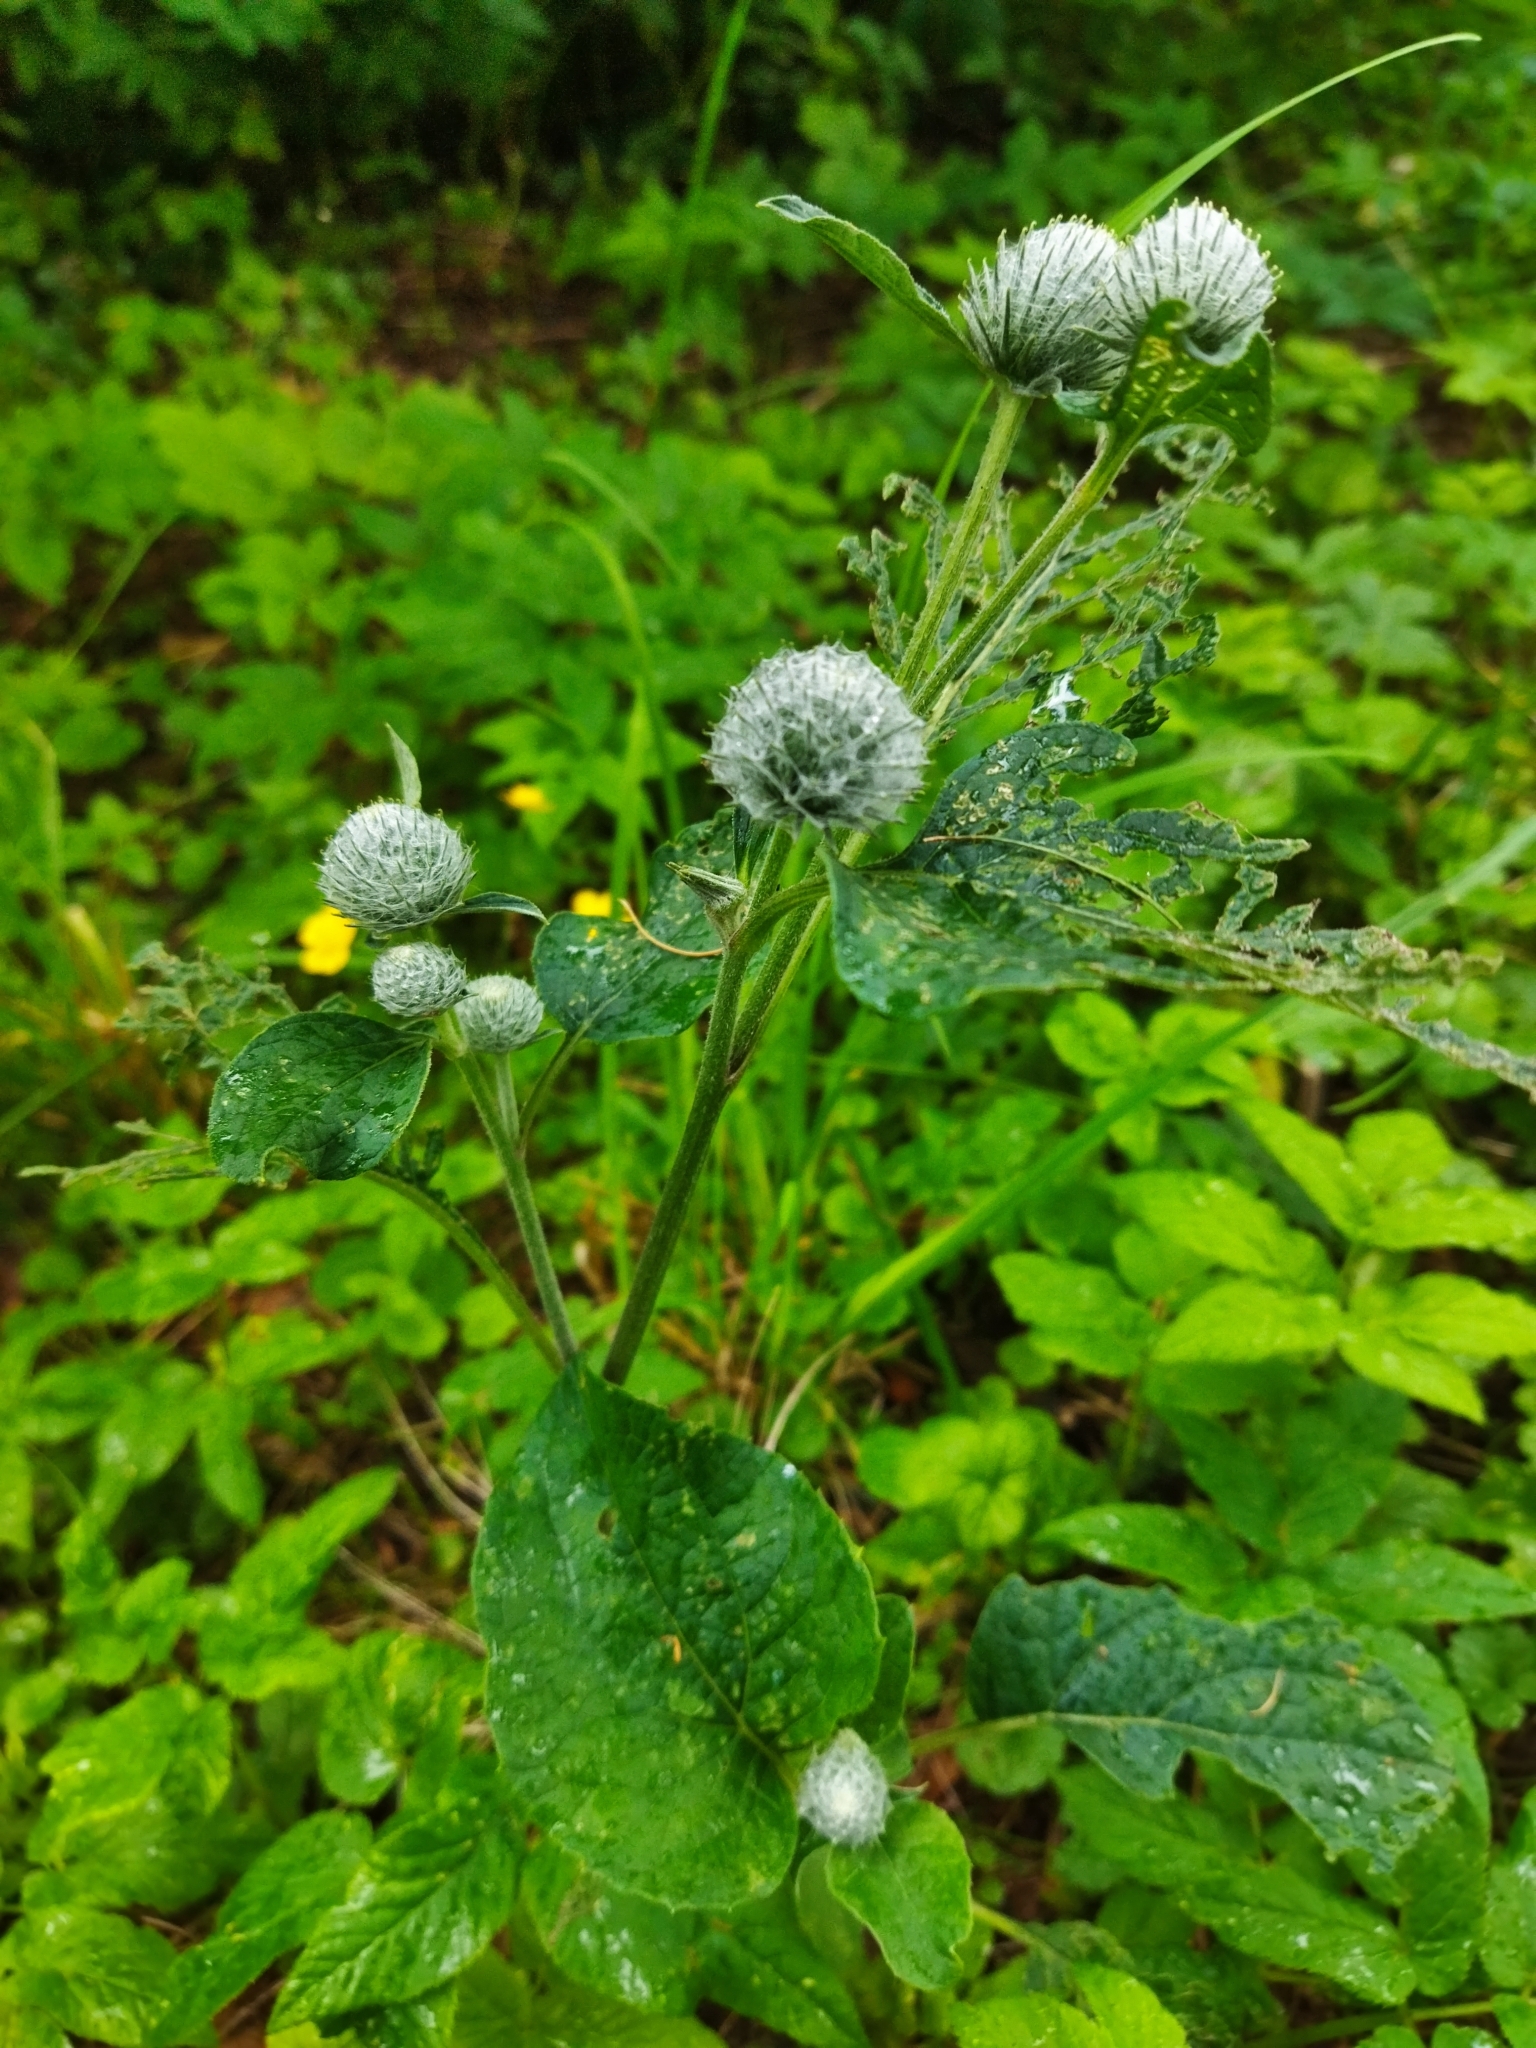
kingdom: Plantae
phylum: Tracheophyta
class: Magnoliopsida
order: Asterales
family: Asteraceae
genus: Arctium
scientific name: Arctium tomentosum
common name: Woolly burdock
